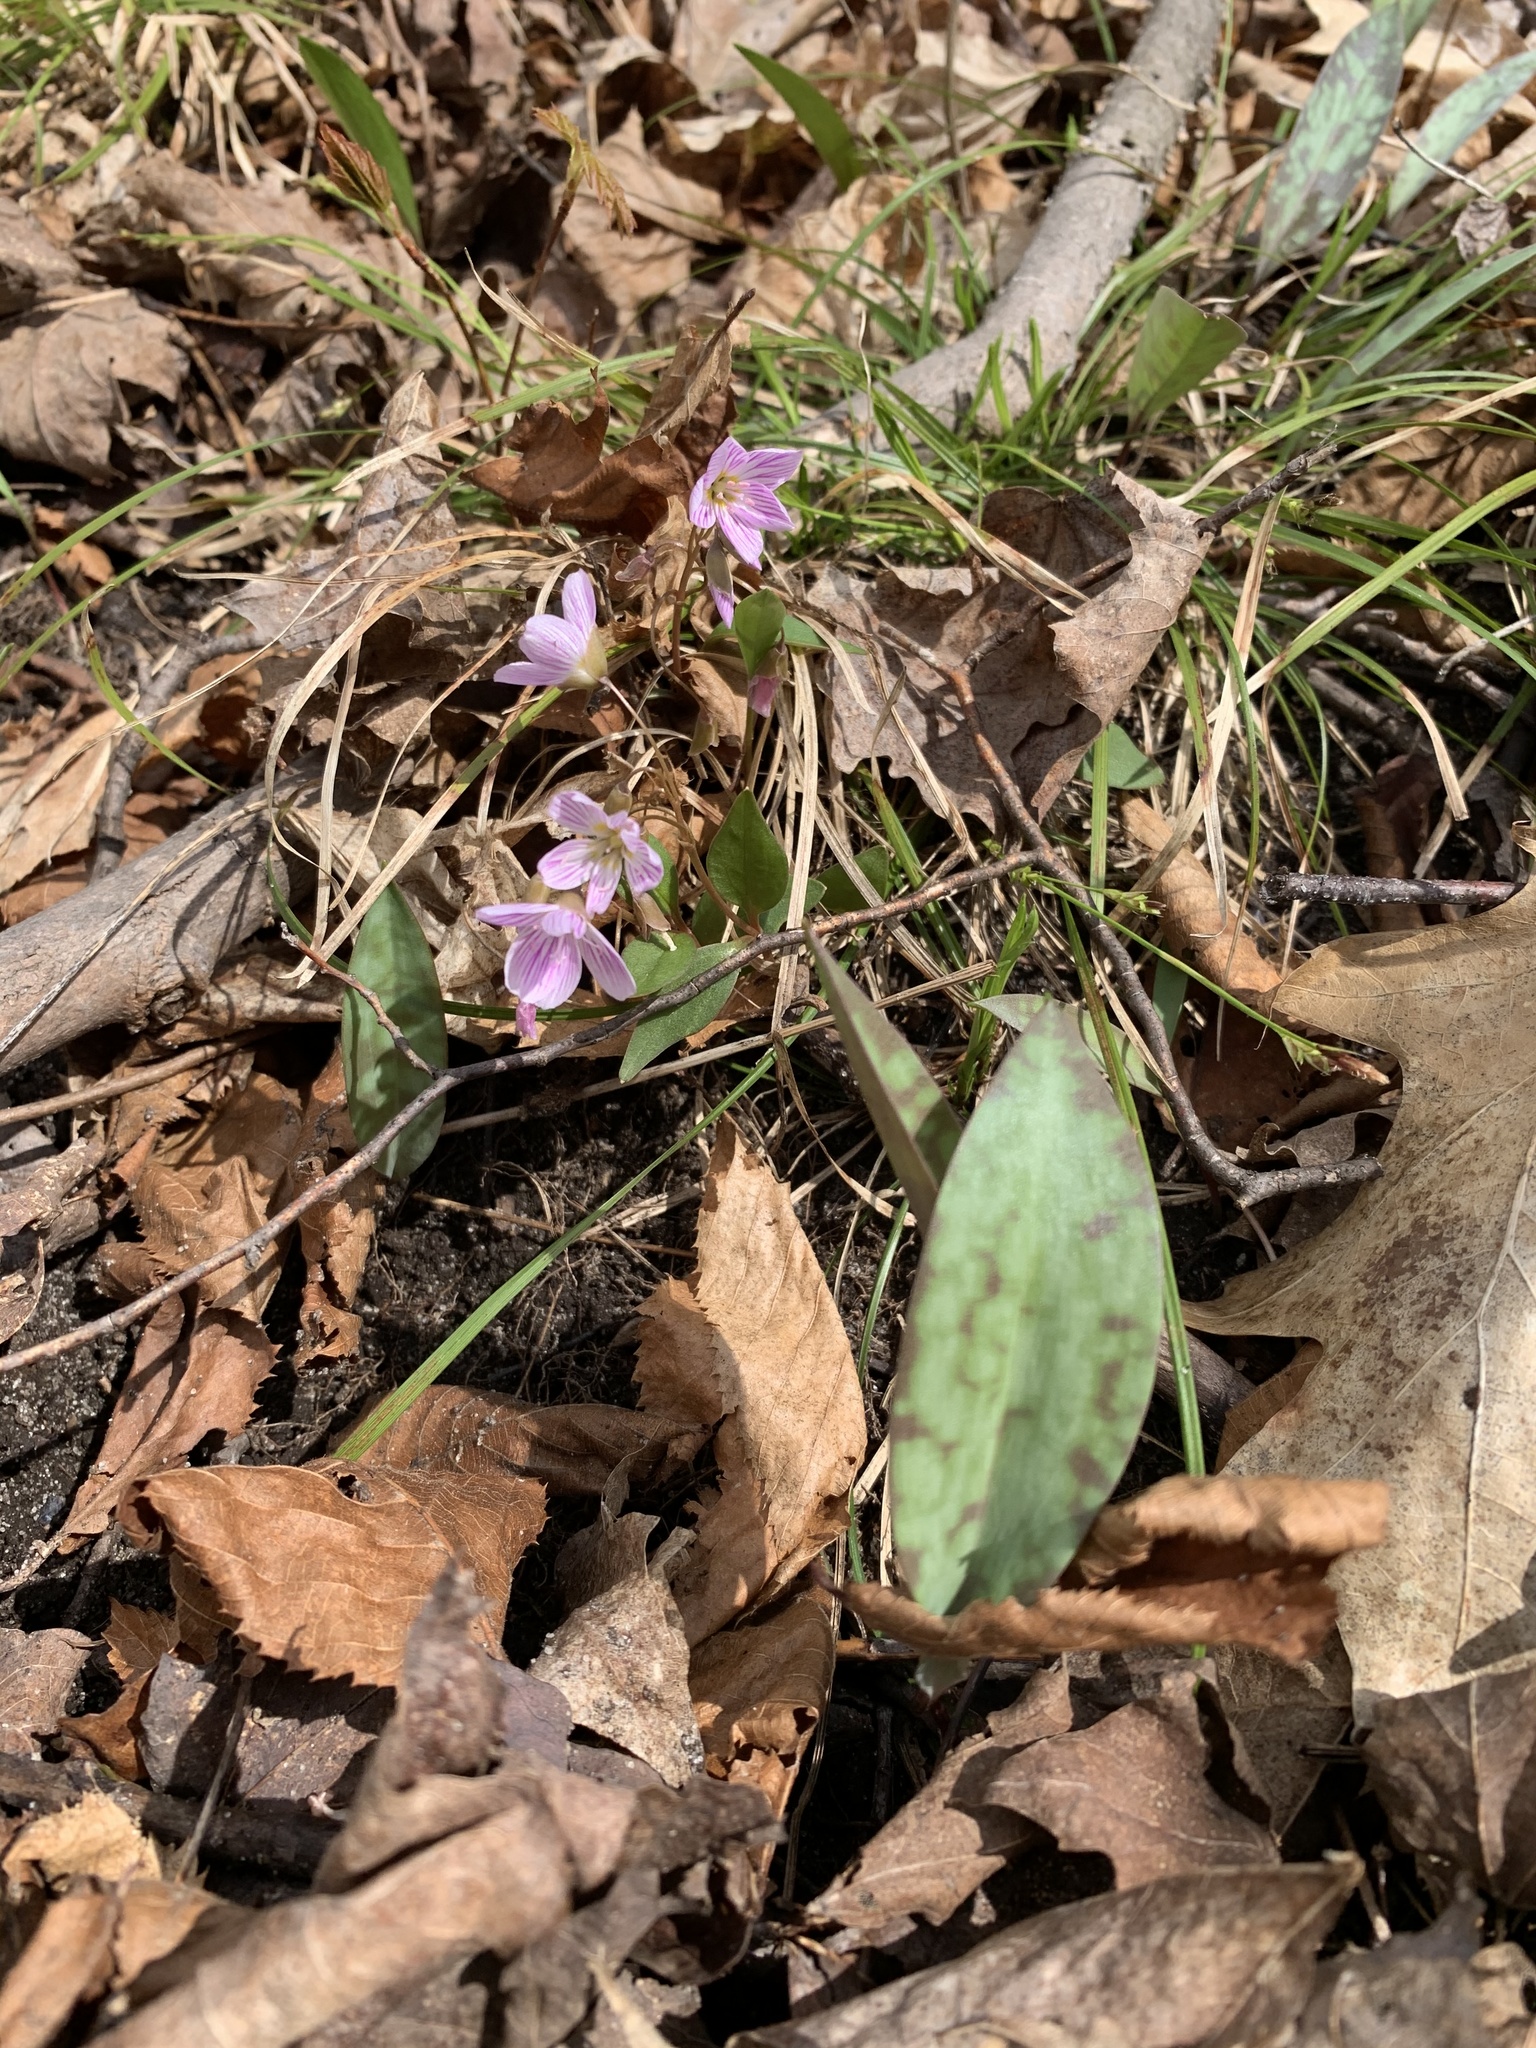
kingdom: Plantae
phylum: Tracheophyta
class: Magnoliopsida
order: Caryophyllales
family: Montiaceae
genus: Claytonia
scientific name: Claytonia caroliniana
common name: Carolina spring beauty
